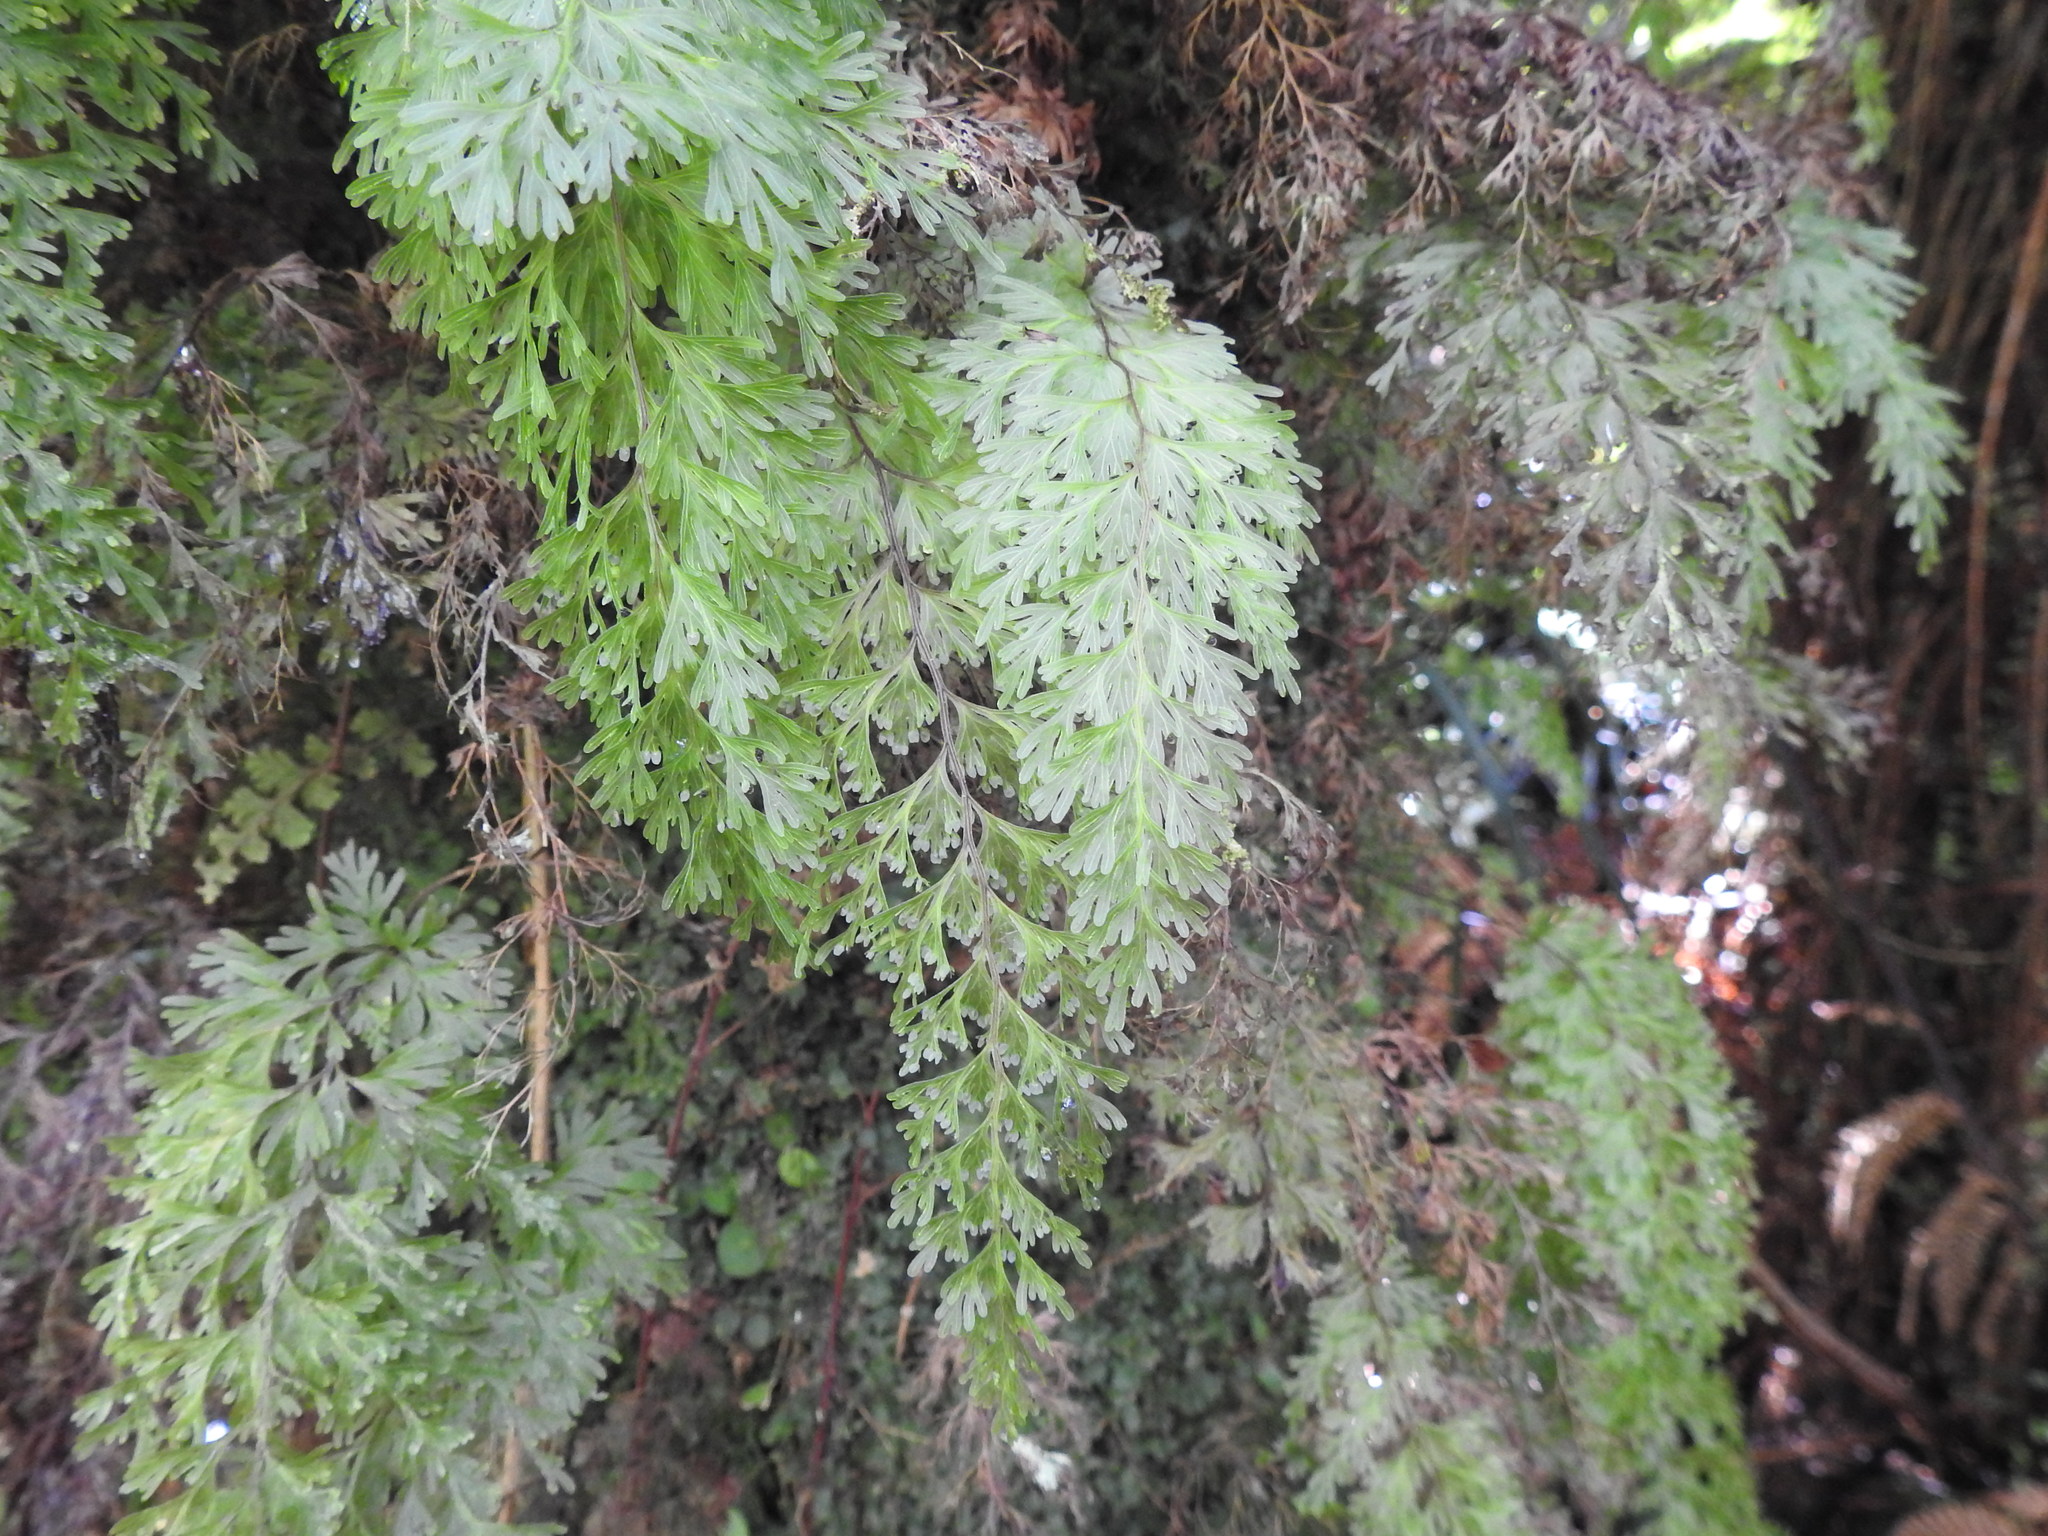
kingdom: Plantae
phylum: Tracheophyta
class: Polypodiopsida
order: Hymenophyllales
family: Hymenophyllaceae
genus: Hymenophyllum
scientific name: Hymenophyllum demissum
